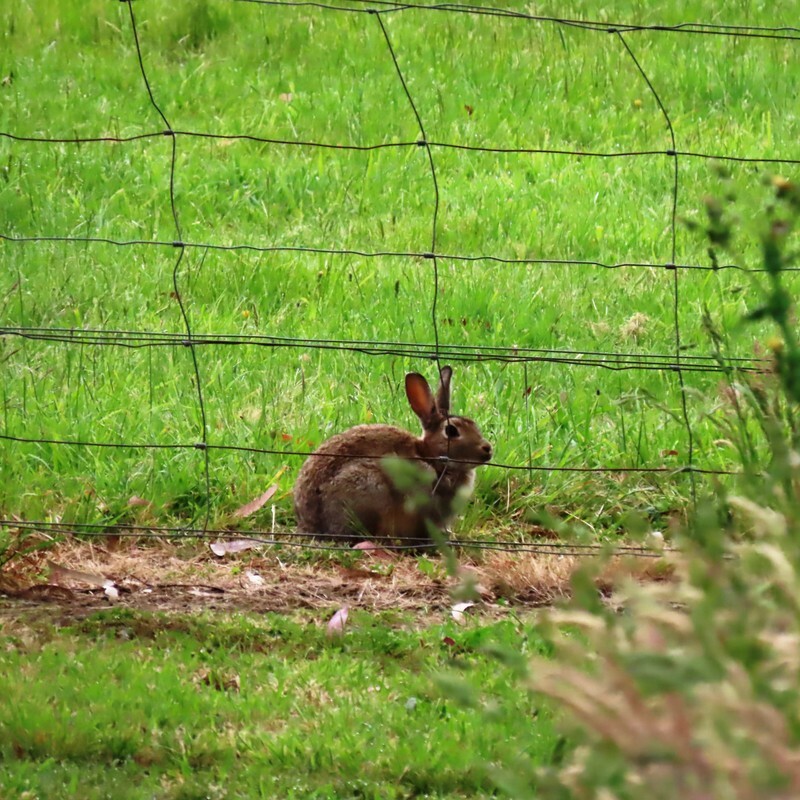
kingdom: Animalia
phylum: Chordata
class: Mammalia
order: Lagomorpha
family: Leporidae
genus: Oryctolagus
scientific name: Oryctolagus cuniculus
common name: European rabbit
